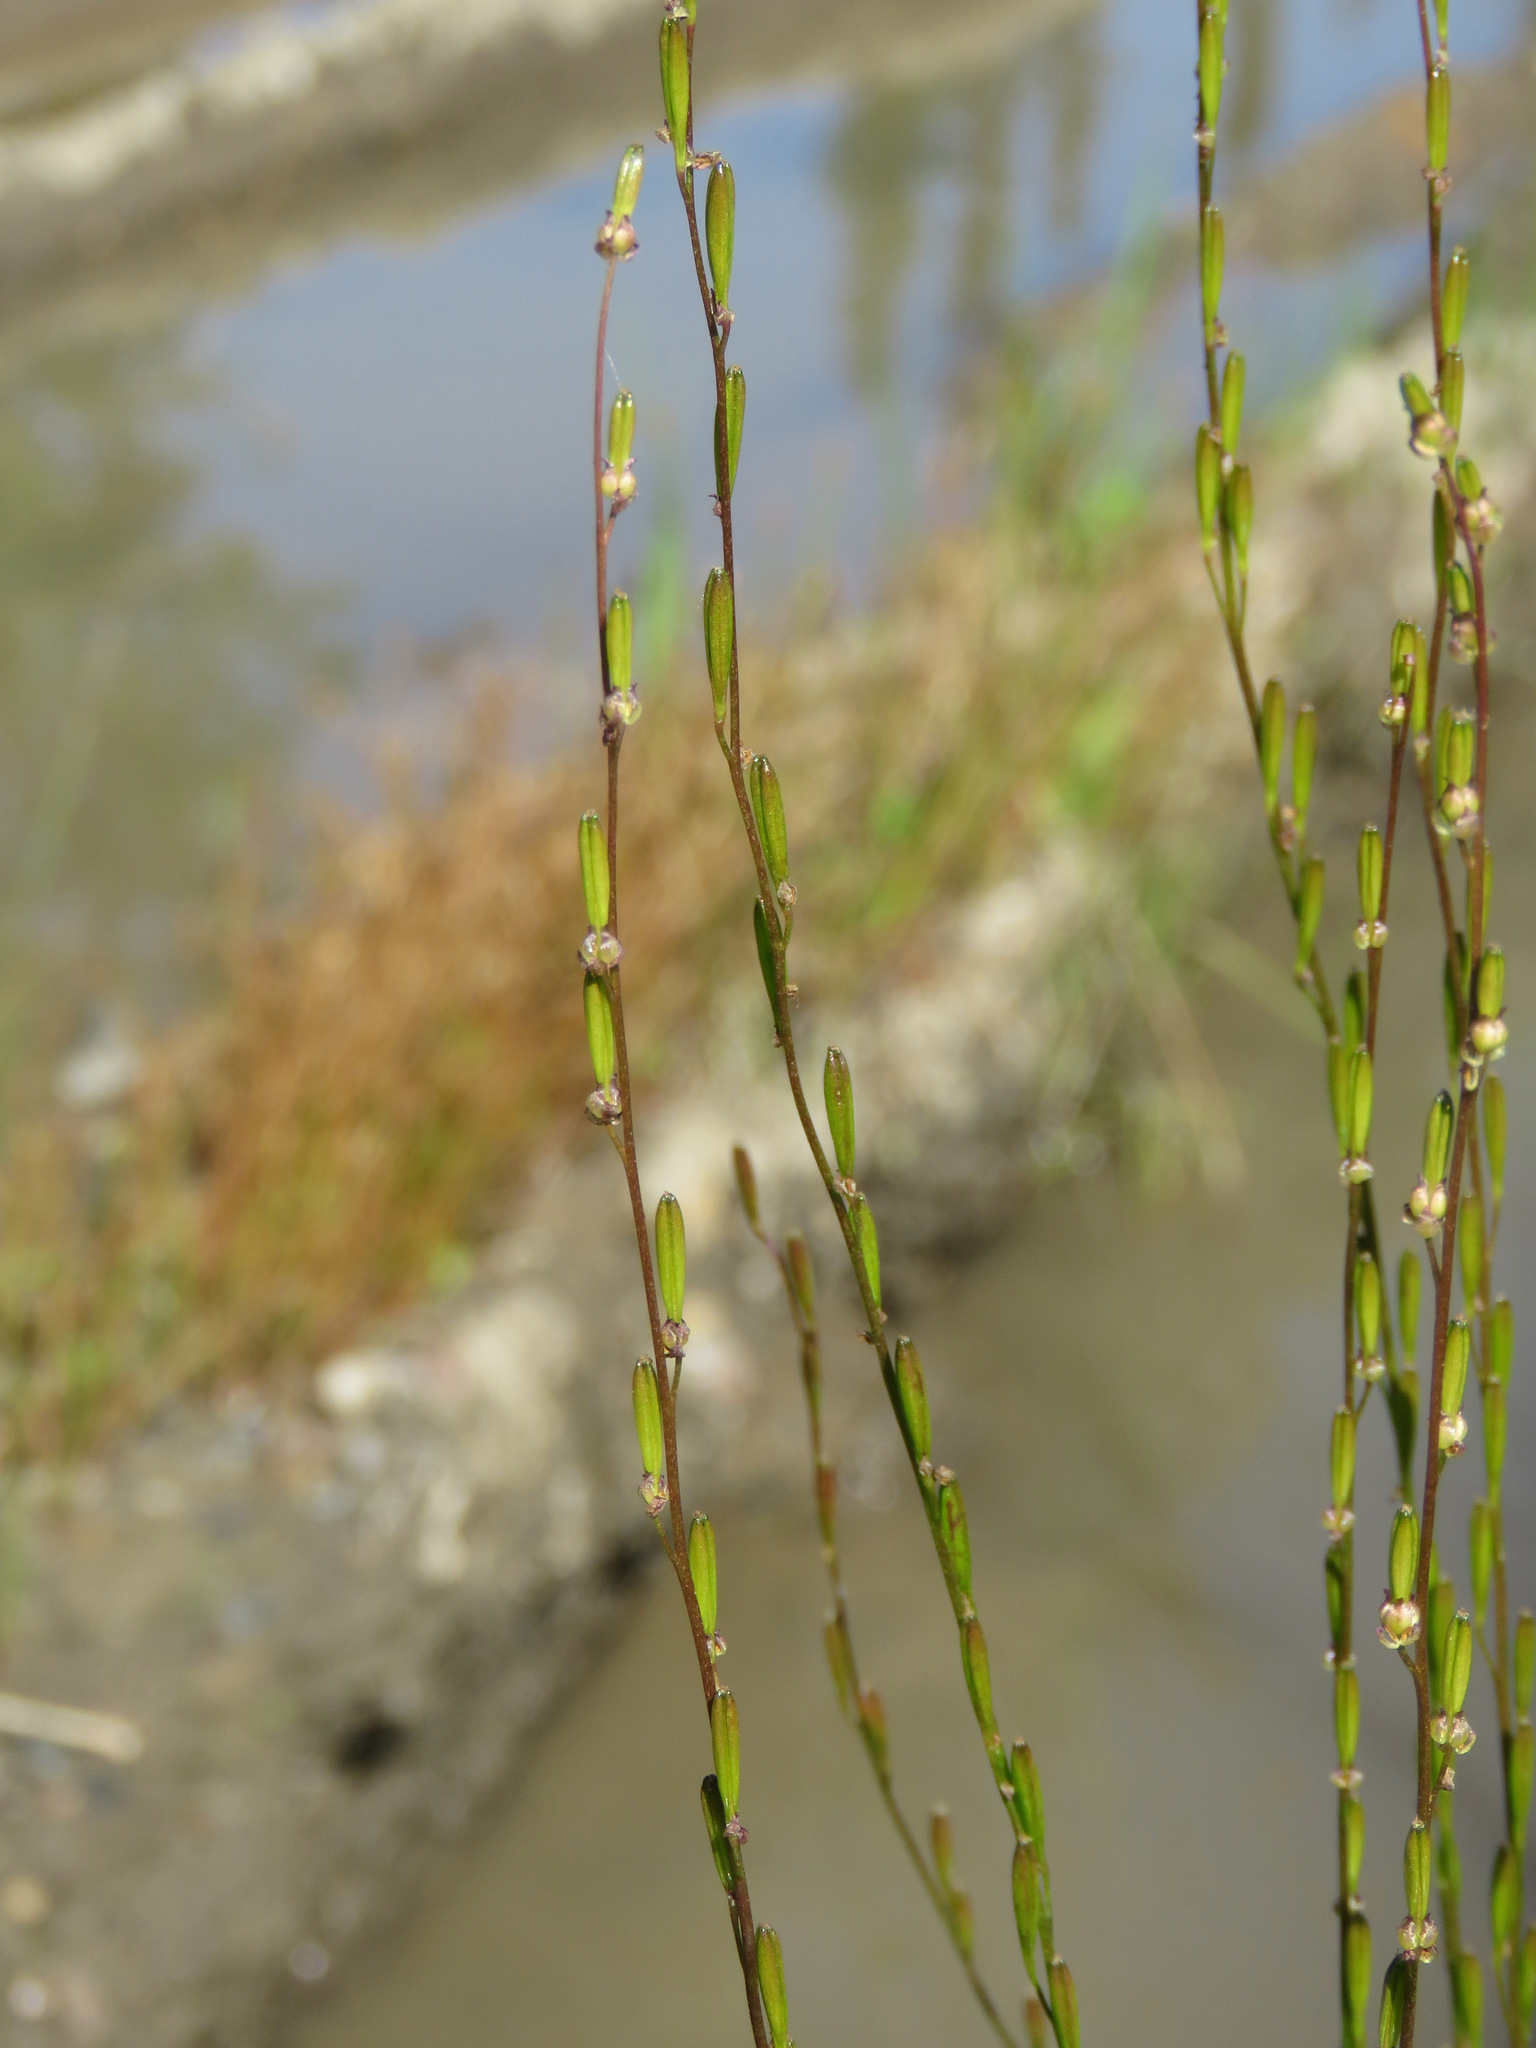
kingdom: Plantae
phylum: Tracheophyta
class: Liliopsida
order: Alismatales
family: Juncaginaceae
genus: Triglochin
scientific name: Triglochin palustris
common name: Marsh arrowgrass
